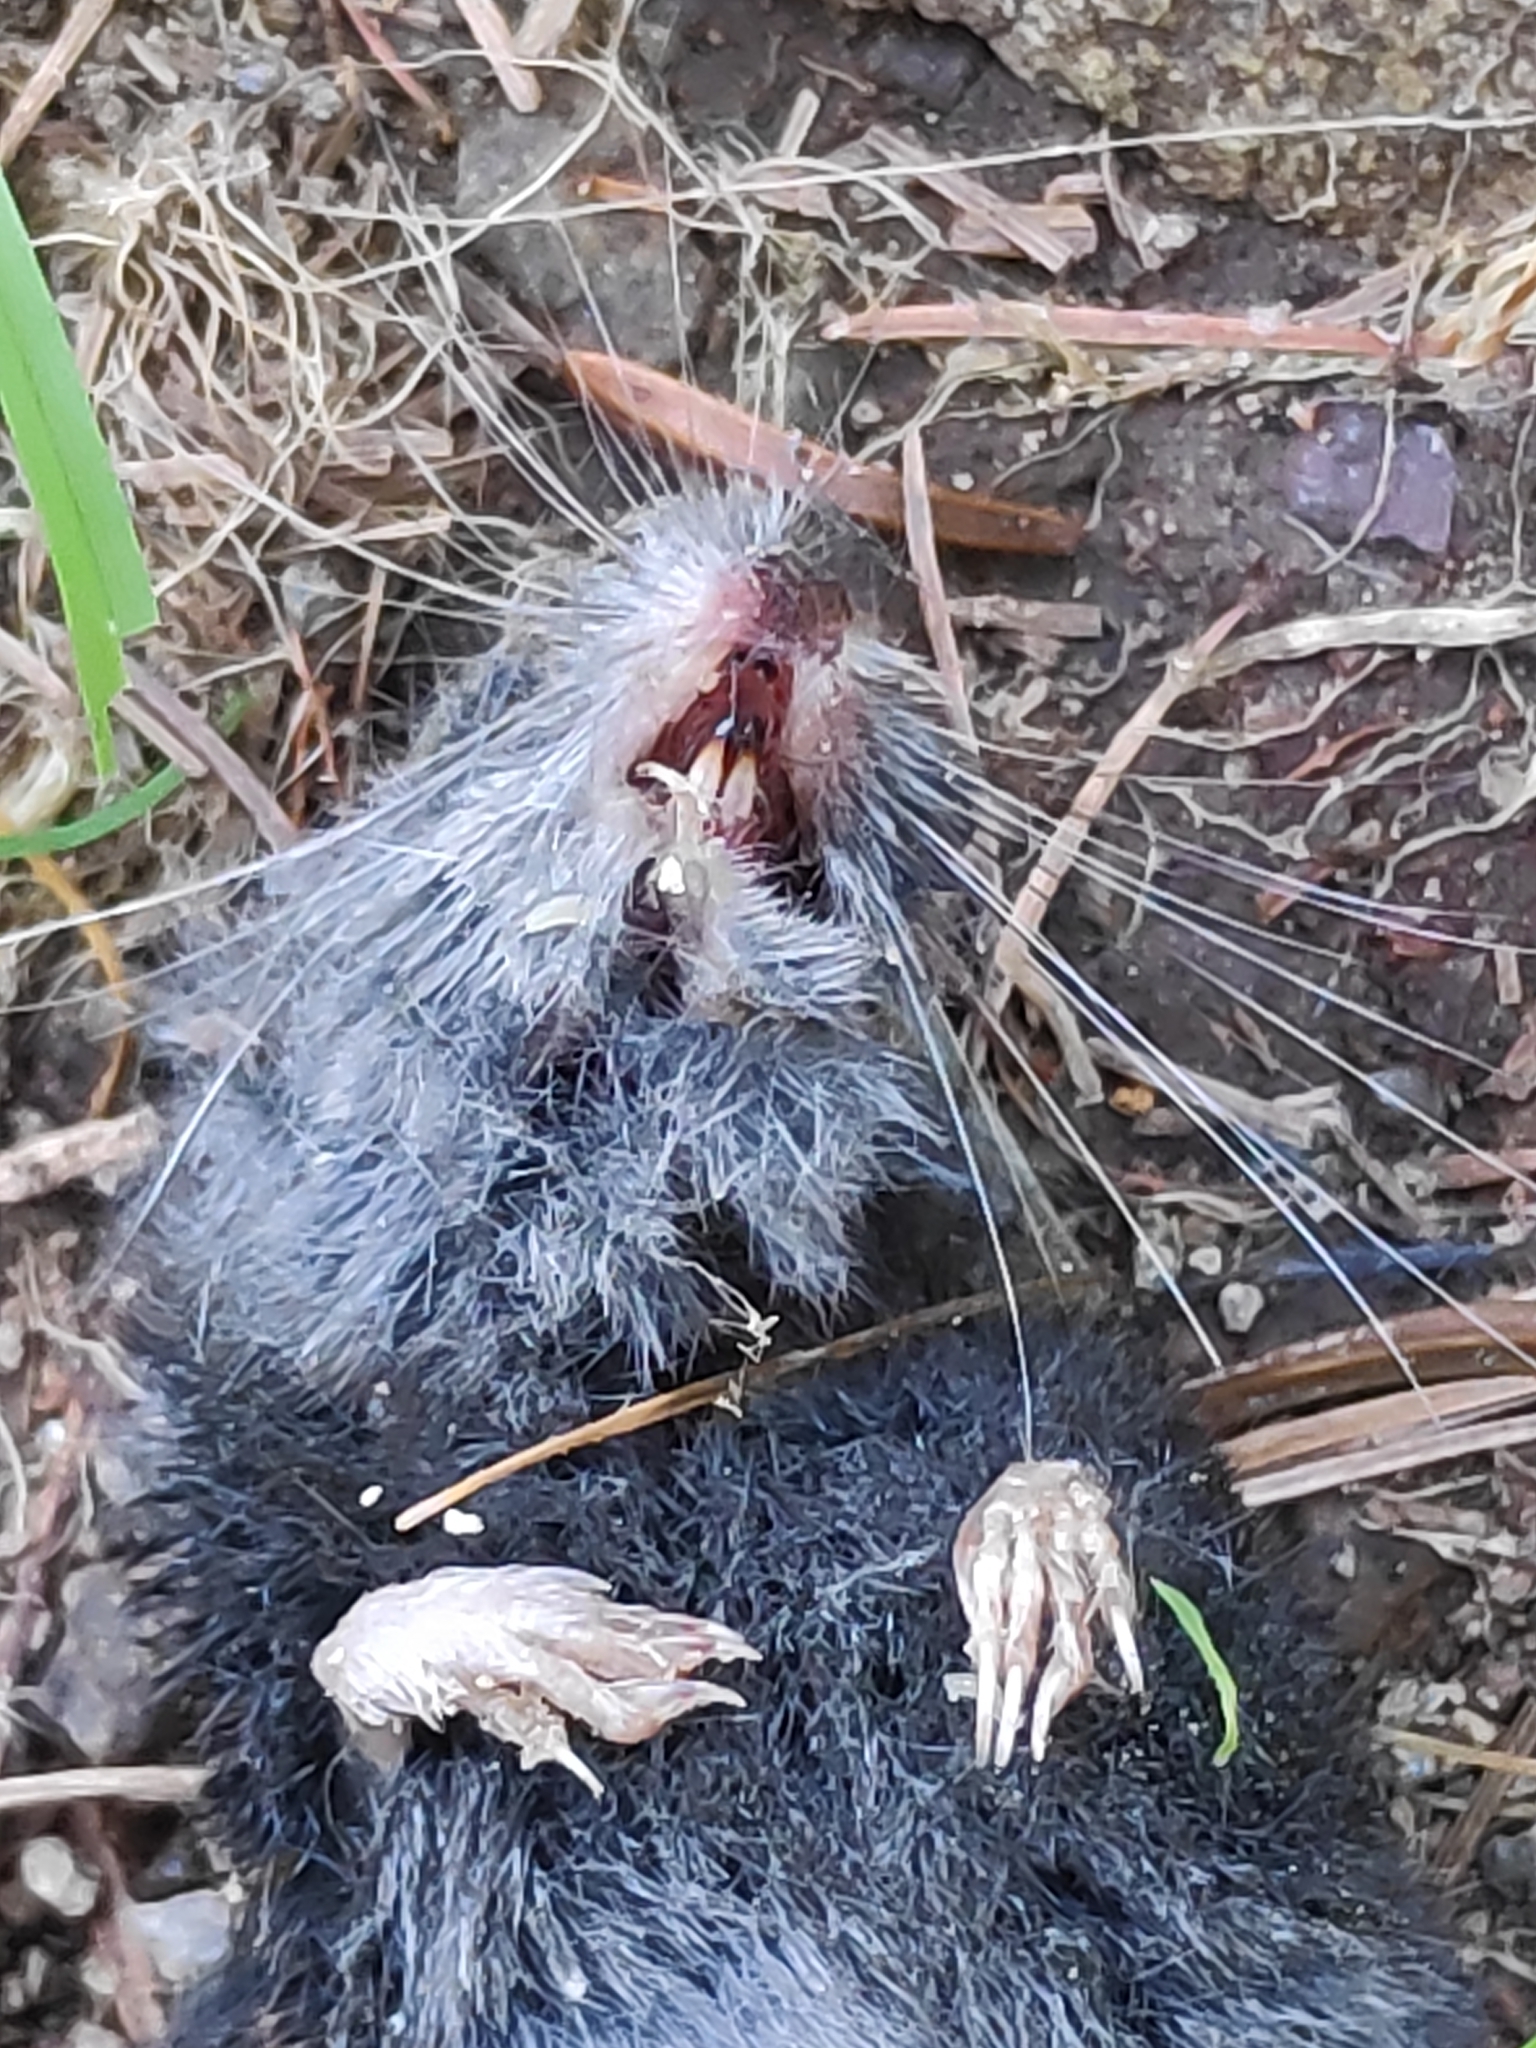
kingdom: Animalia
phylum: Chordata
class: Mammalia
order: Soricomorpha
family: Soricidae
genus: Sorex
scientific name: Sorex alpinus
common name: Alpine shrew
